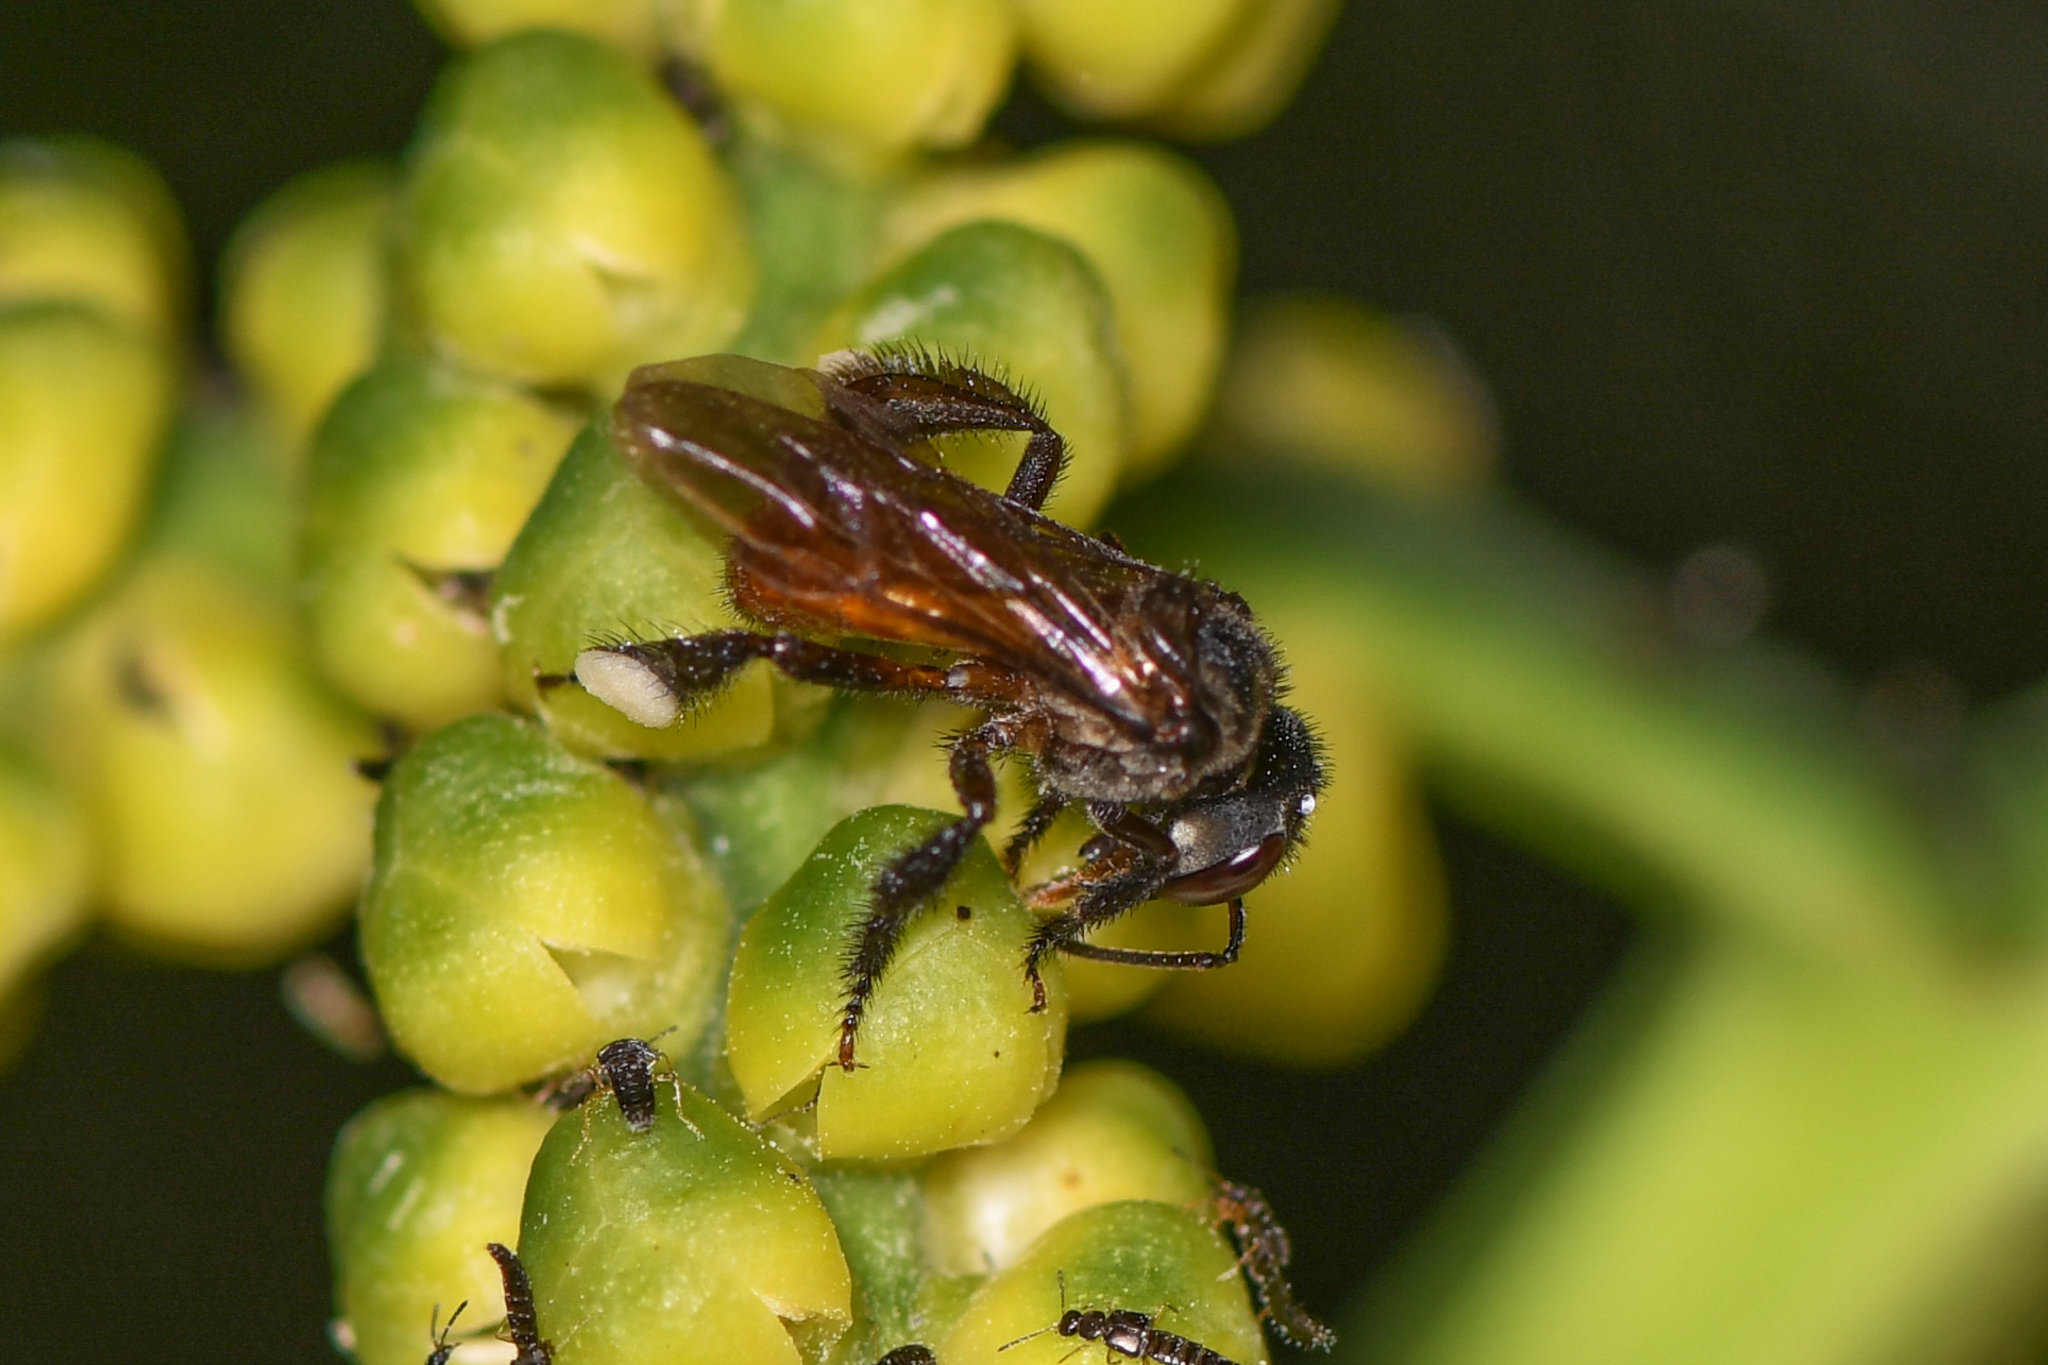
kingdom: Animalia
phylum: Arthropoda
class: Insecta
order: Hymenoptera
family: Apidae
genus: Trigona
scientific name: Trigona fulviventris
